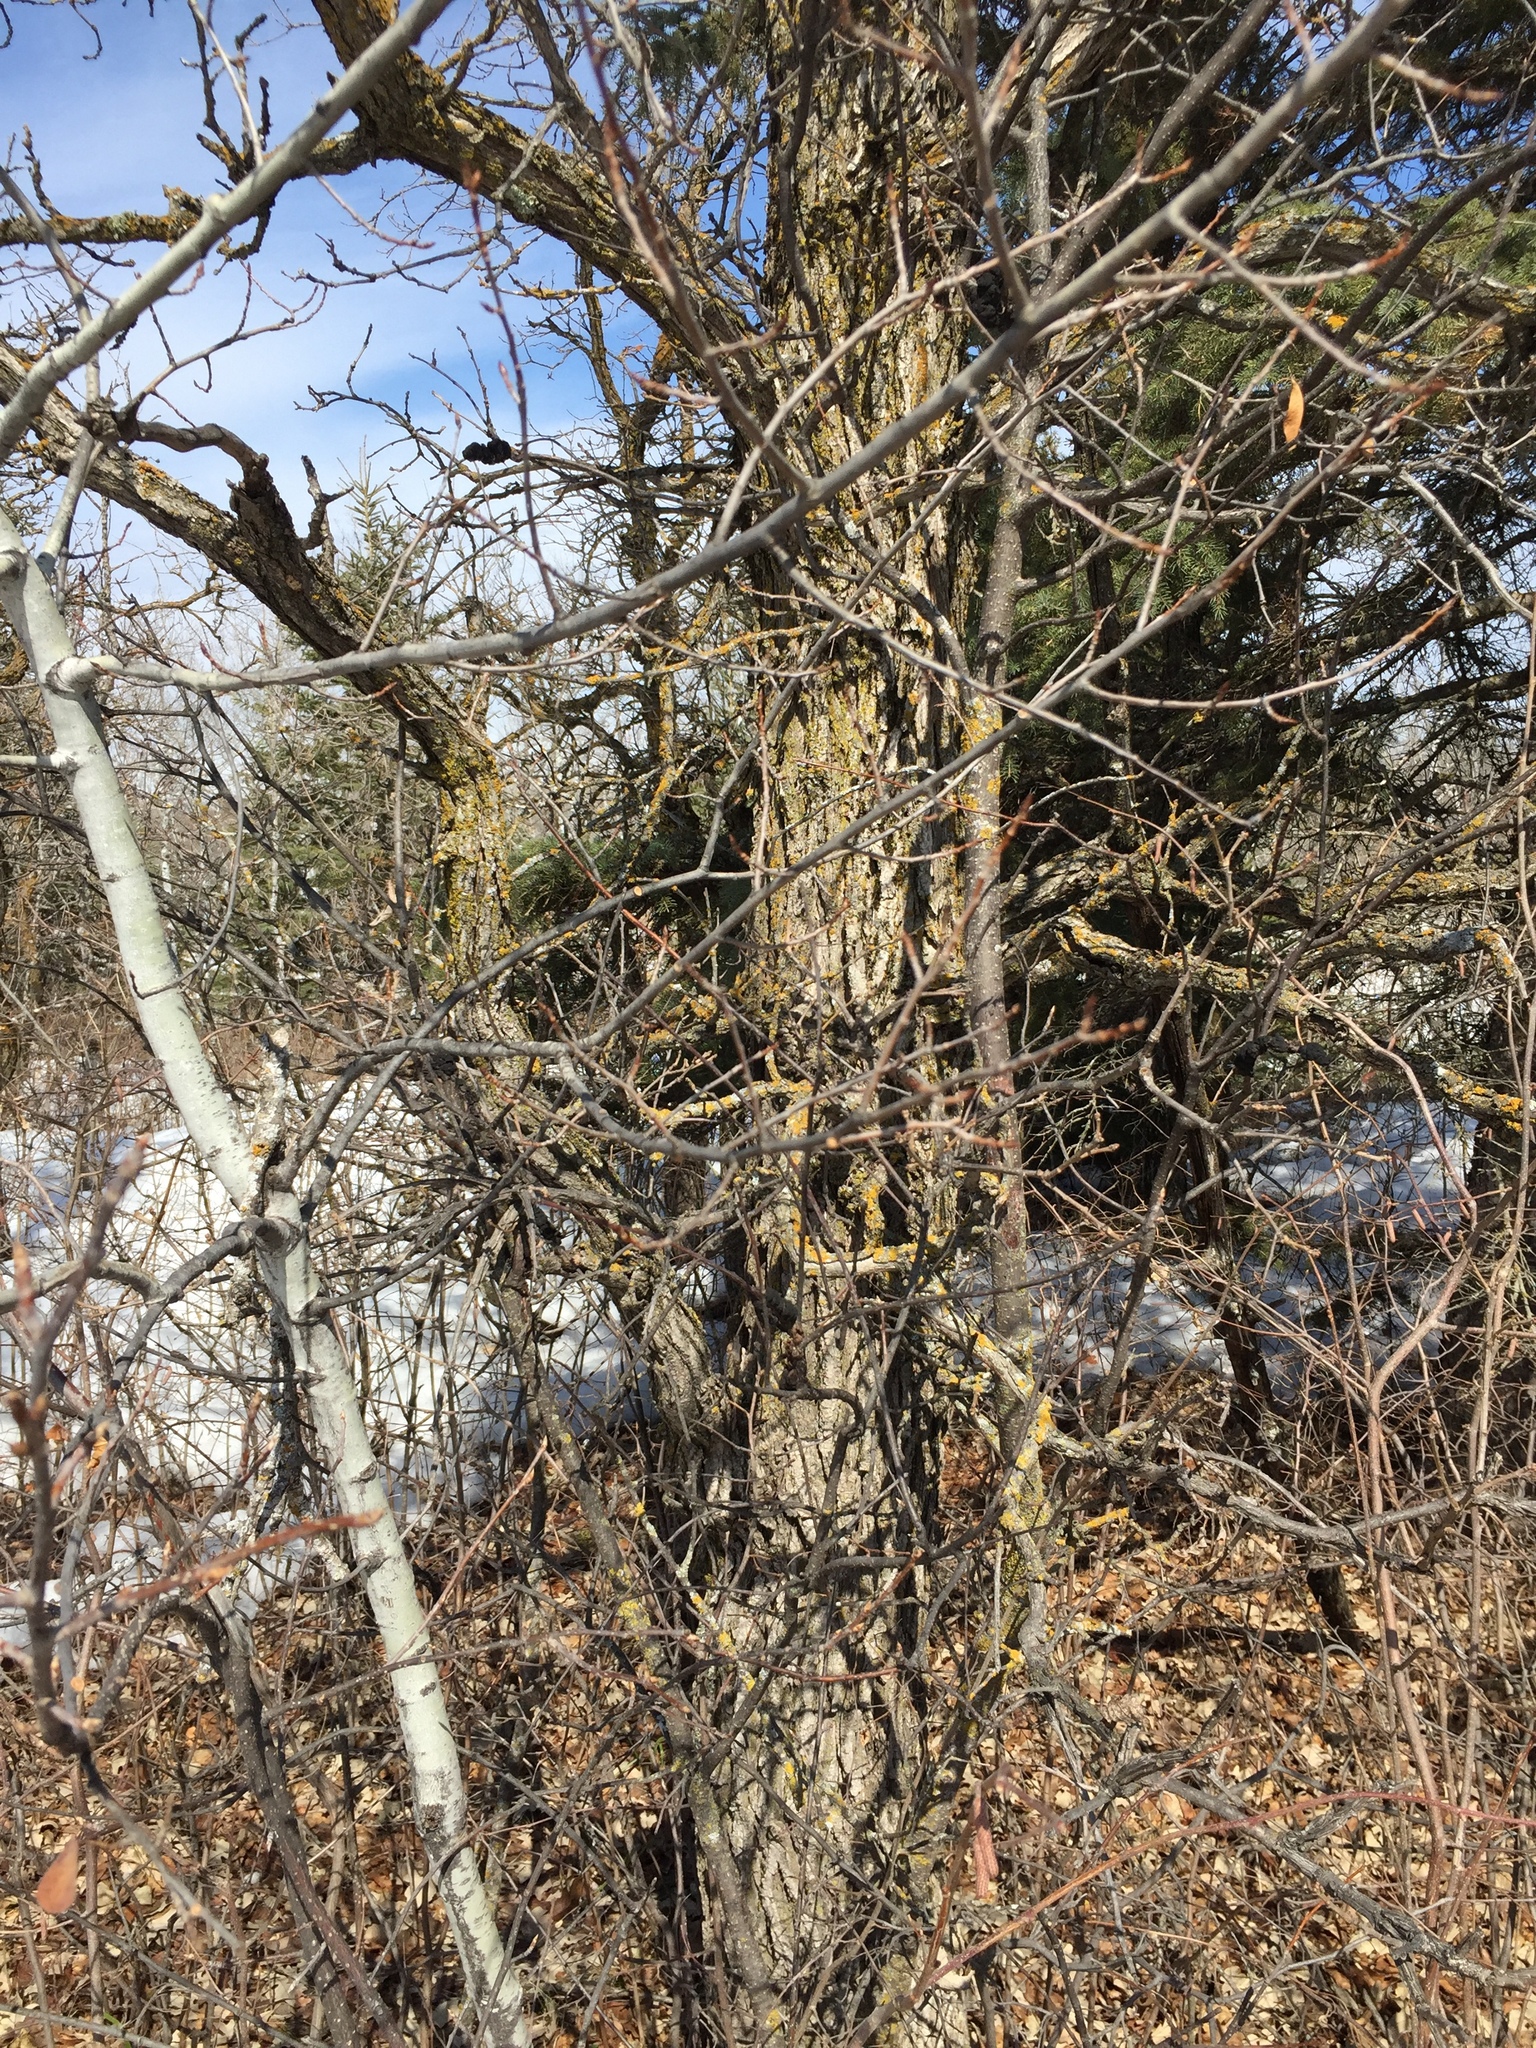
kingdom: Plantae
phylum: Tracheophyta
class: Magnoliopsida
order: Fagales
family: Fagaceae
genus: Quercus
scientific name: Quercus macrocarpa
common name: Bur oak
